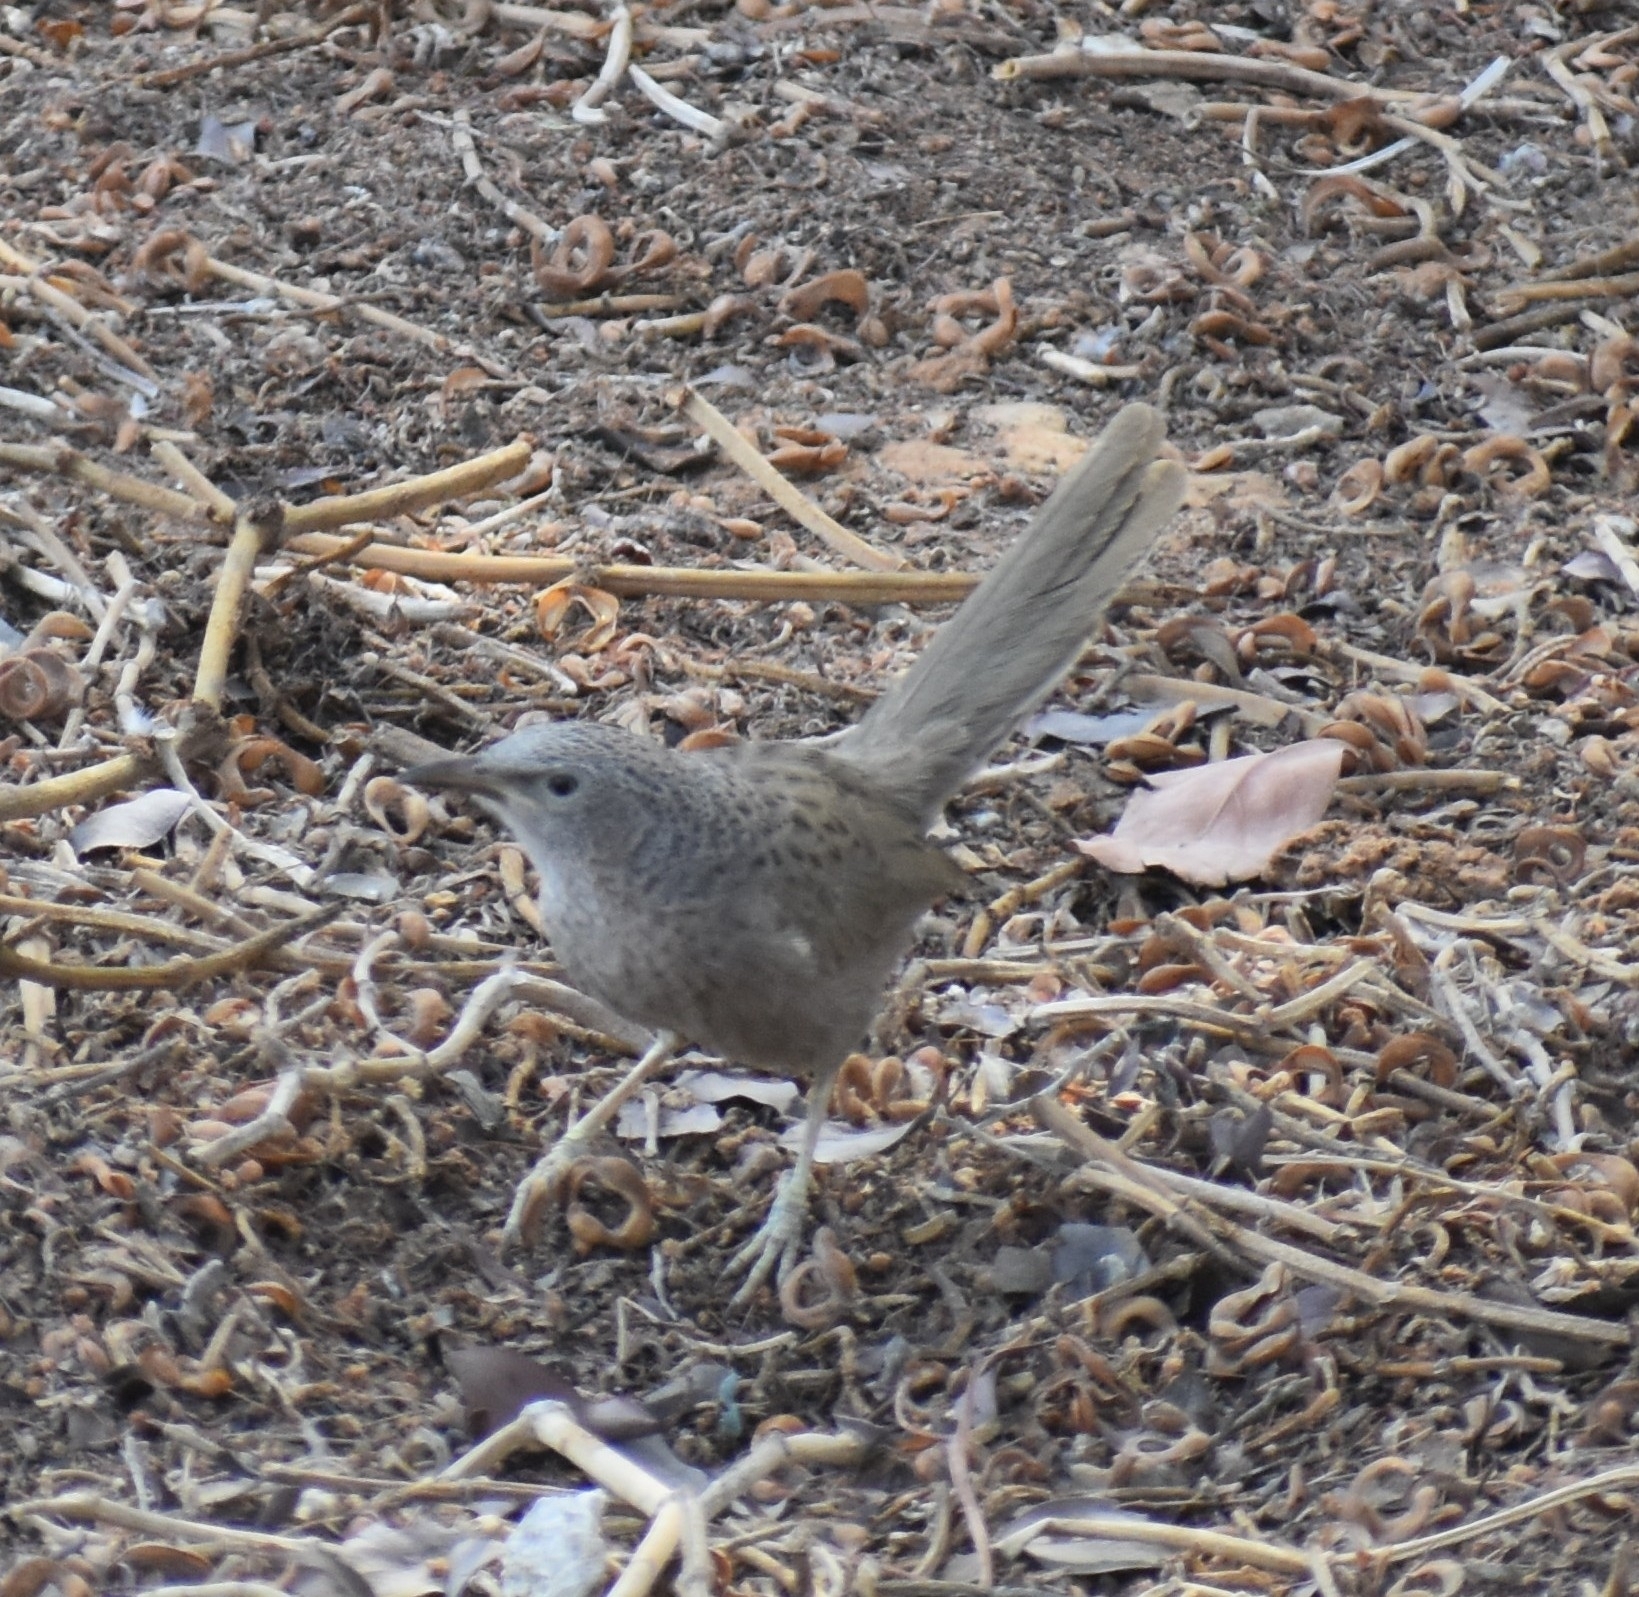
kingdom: Animalia
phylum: Chordata
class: Aves
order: Passeriformes
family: Leiothrichidae
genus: Turdoides
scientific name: Turdoides squamiceps
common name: Arabian babbler
